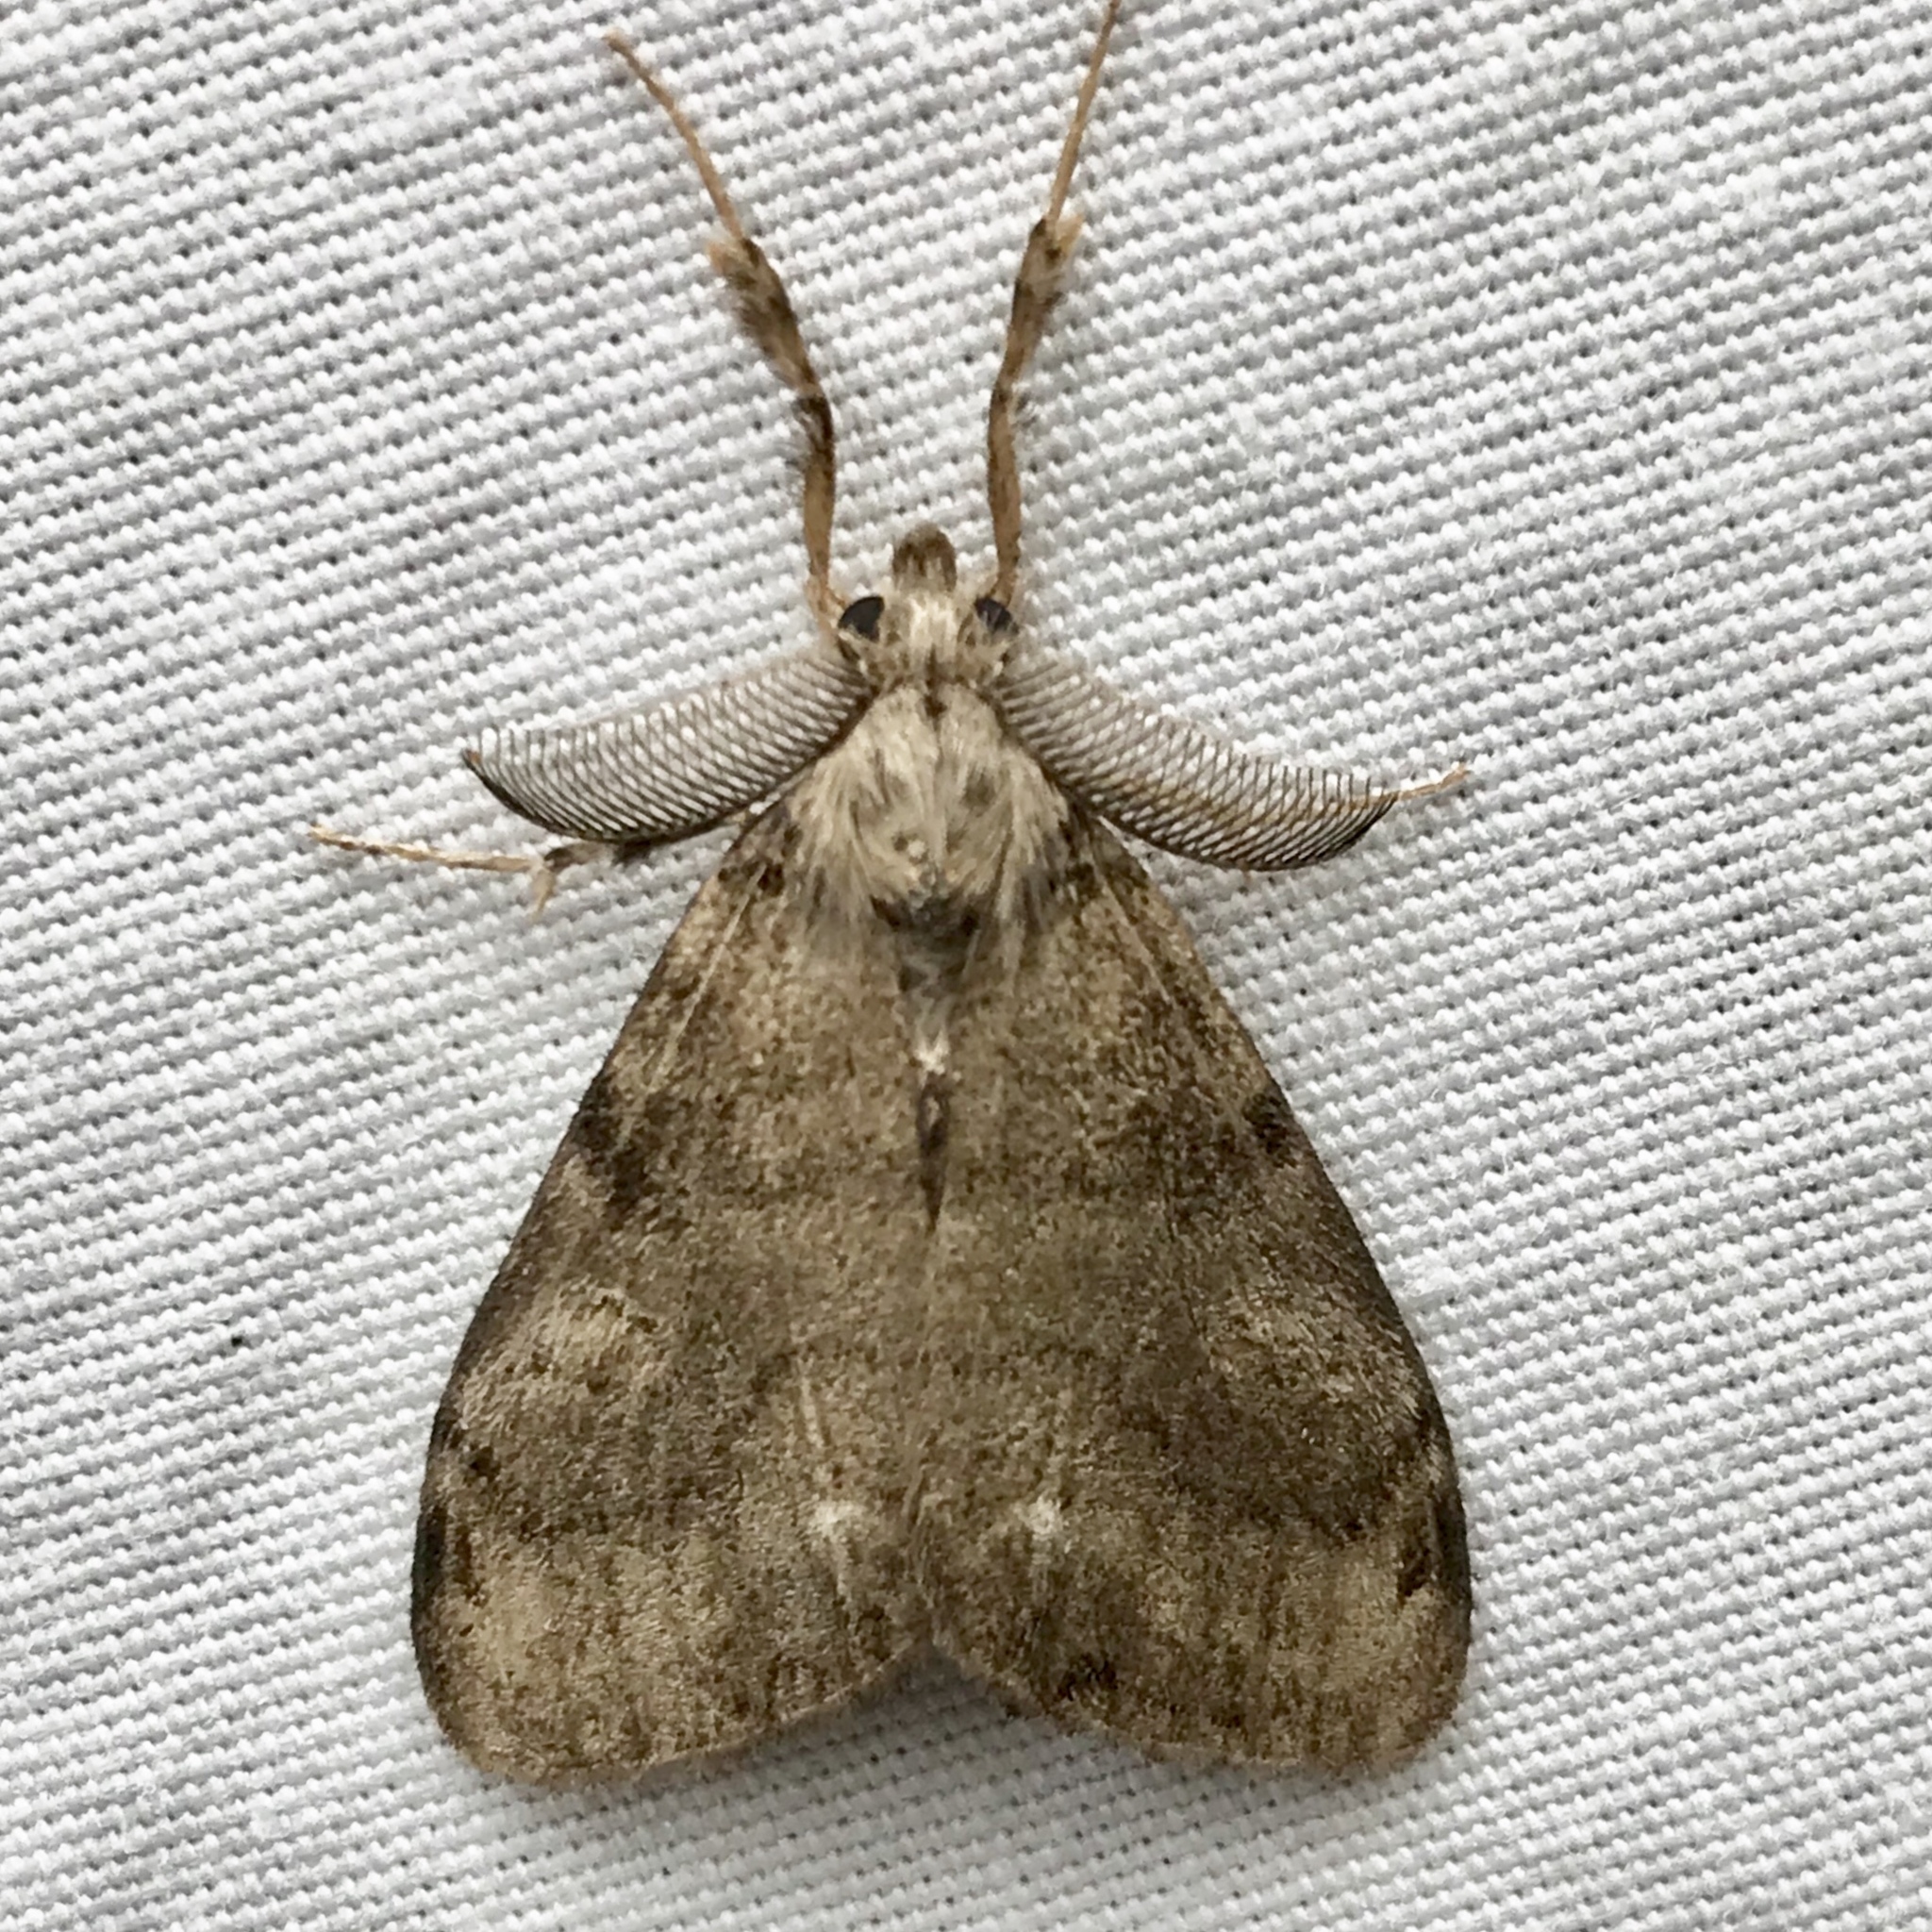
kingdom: Animalia
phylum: Arthropoda
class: Insecta
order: Lepidoptera
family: Erebidae
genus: Orgyia
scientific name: Orgyia leucostigma
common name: White-marked tussock moth
